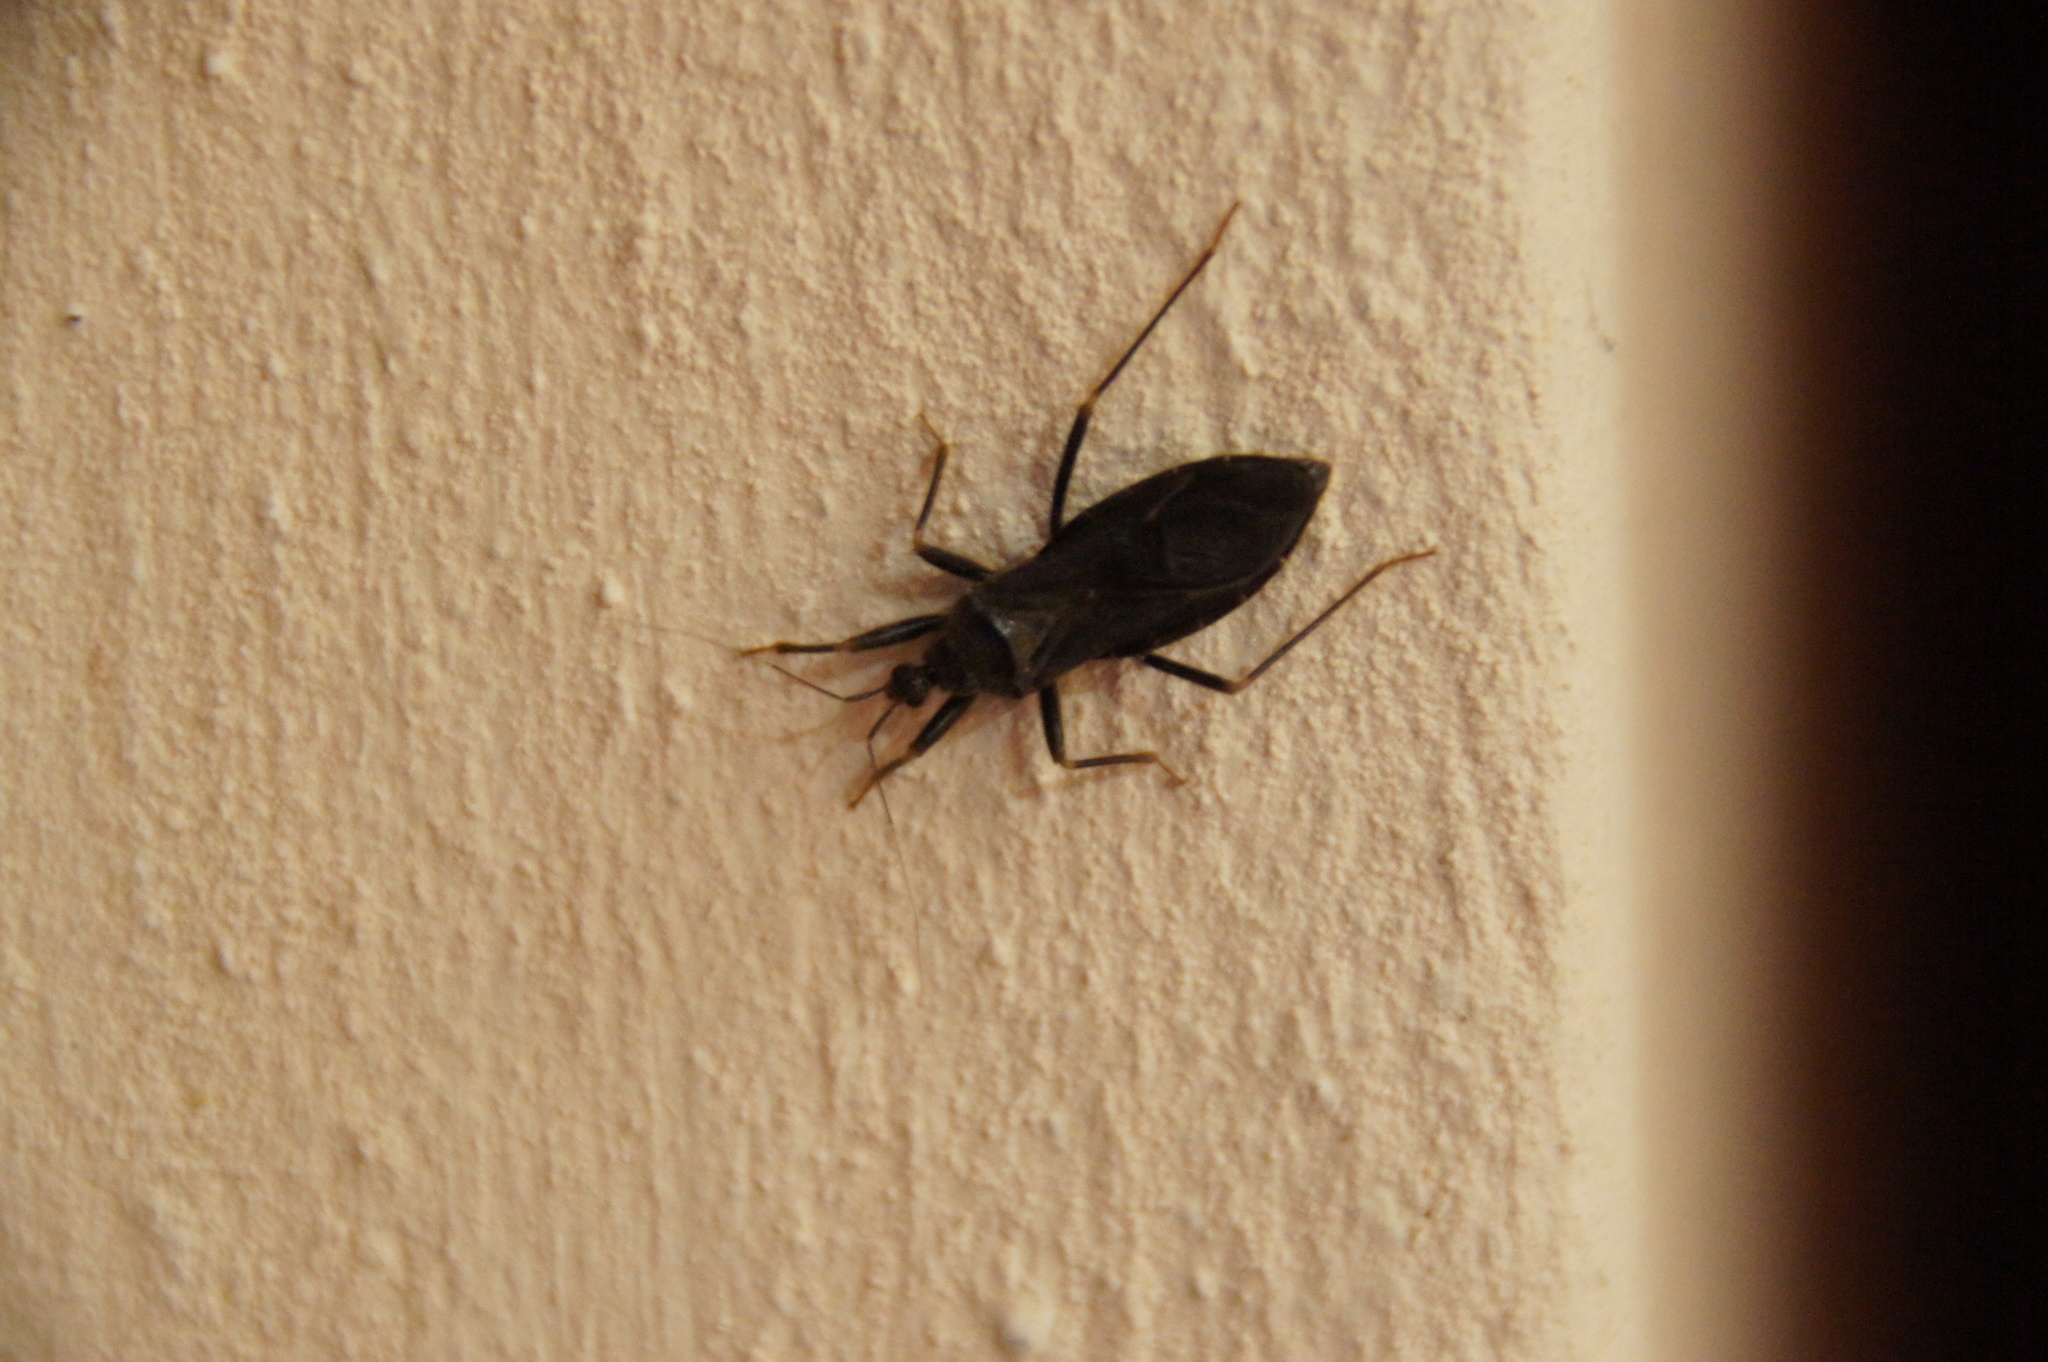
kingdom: Animalia
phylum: Arthropoda
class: Insecta
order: Hemiptera
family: Reduviidae
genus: Reduvius
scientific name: Reduvius personatus
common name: Masked hunter
